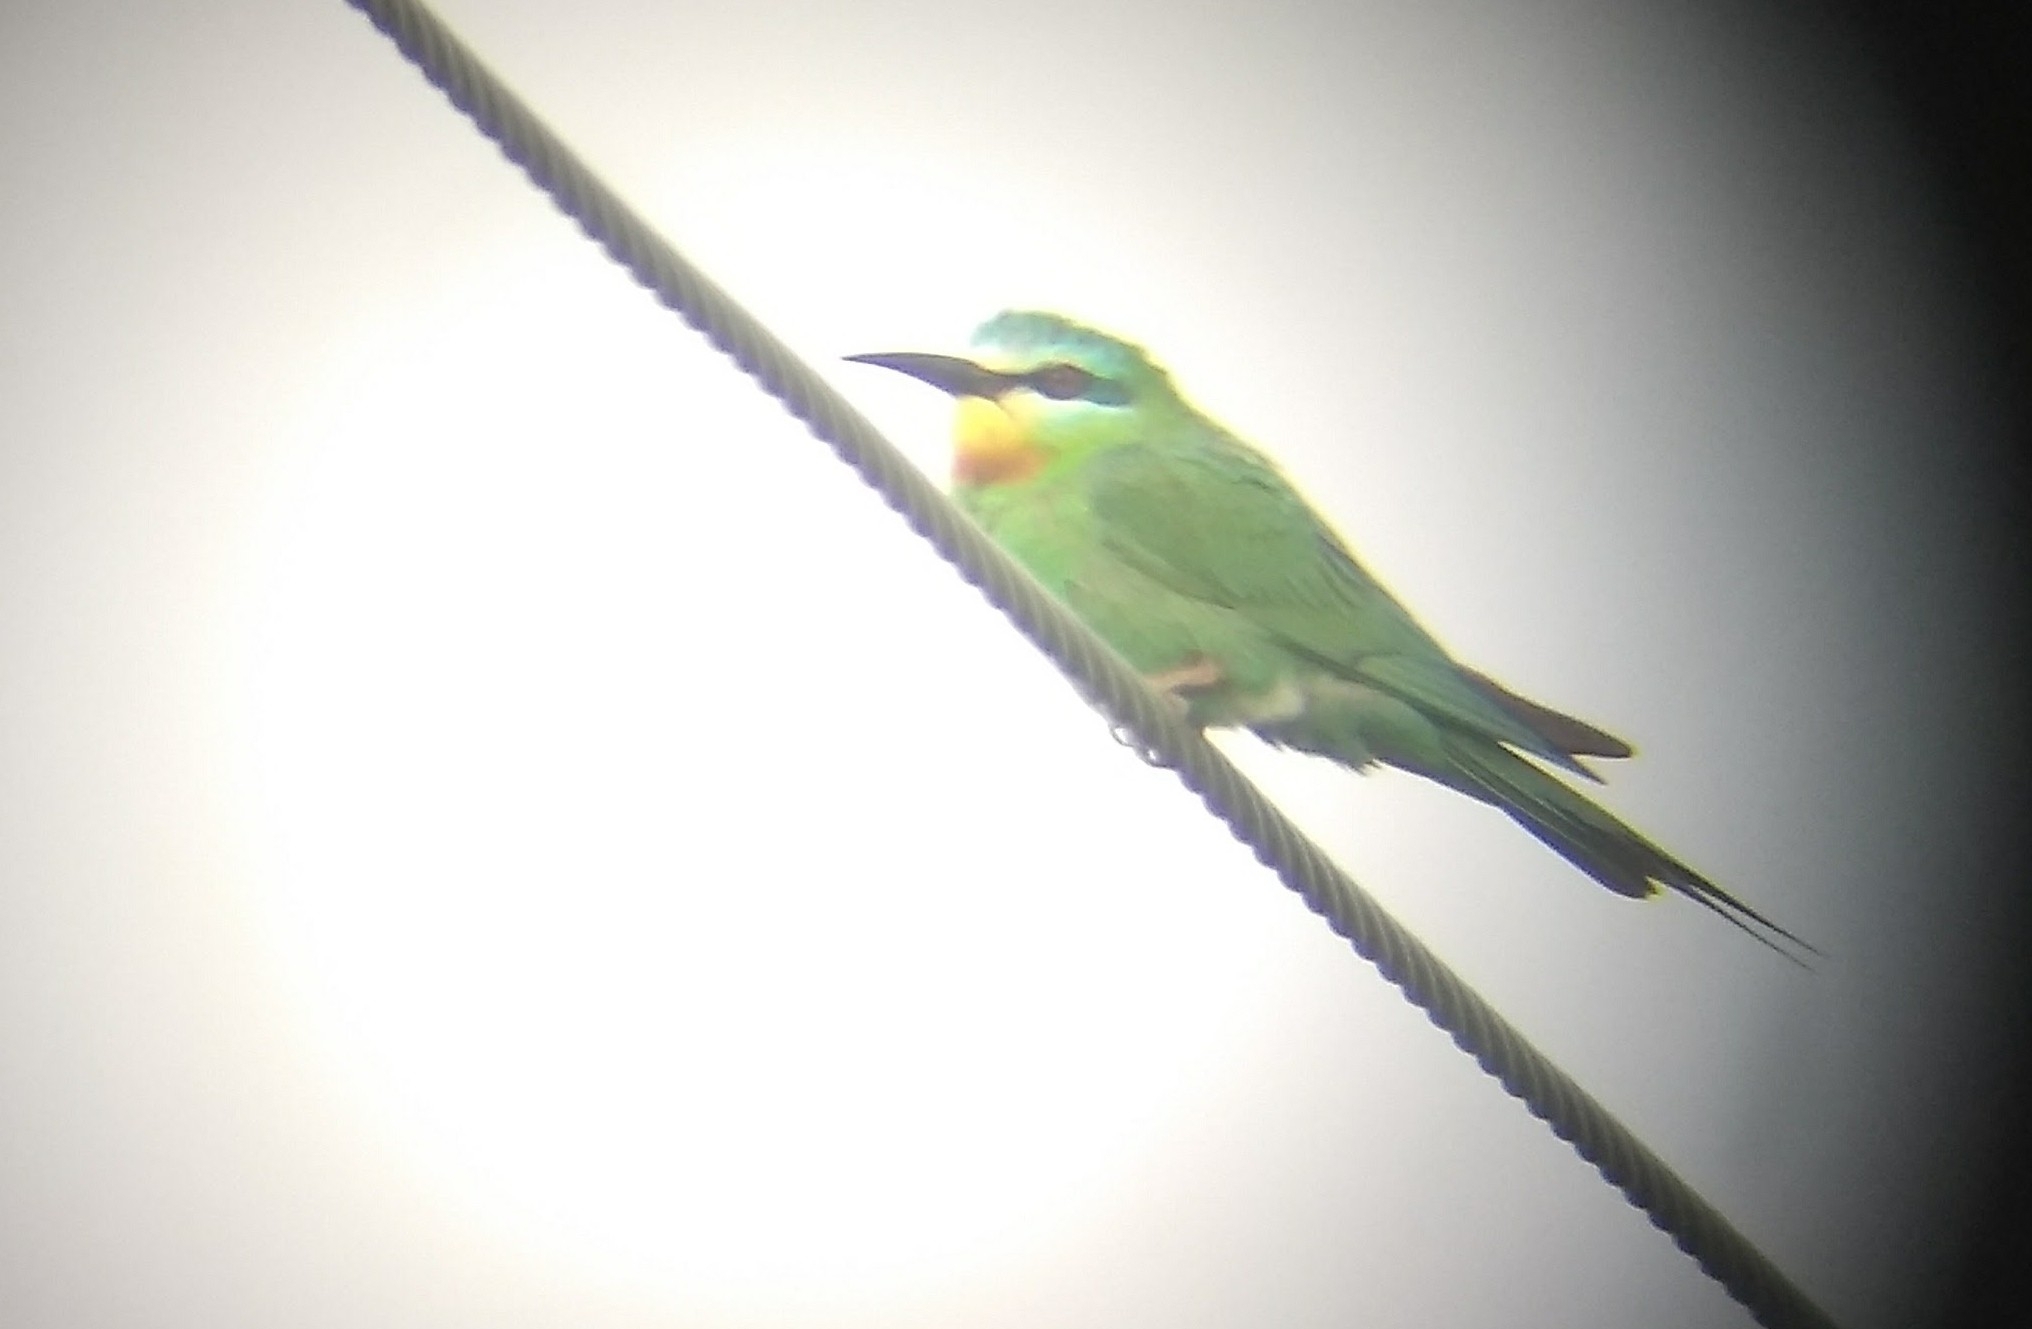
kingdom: Animalia
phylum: Chordata
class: Aves
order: Coraciiformes
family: Meropidae
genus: Merops
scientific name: Merops persicus
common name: Blue-cheeked bee-eater
